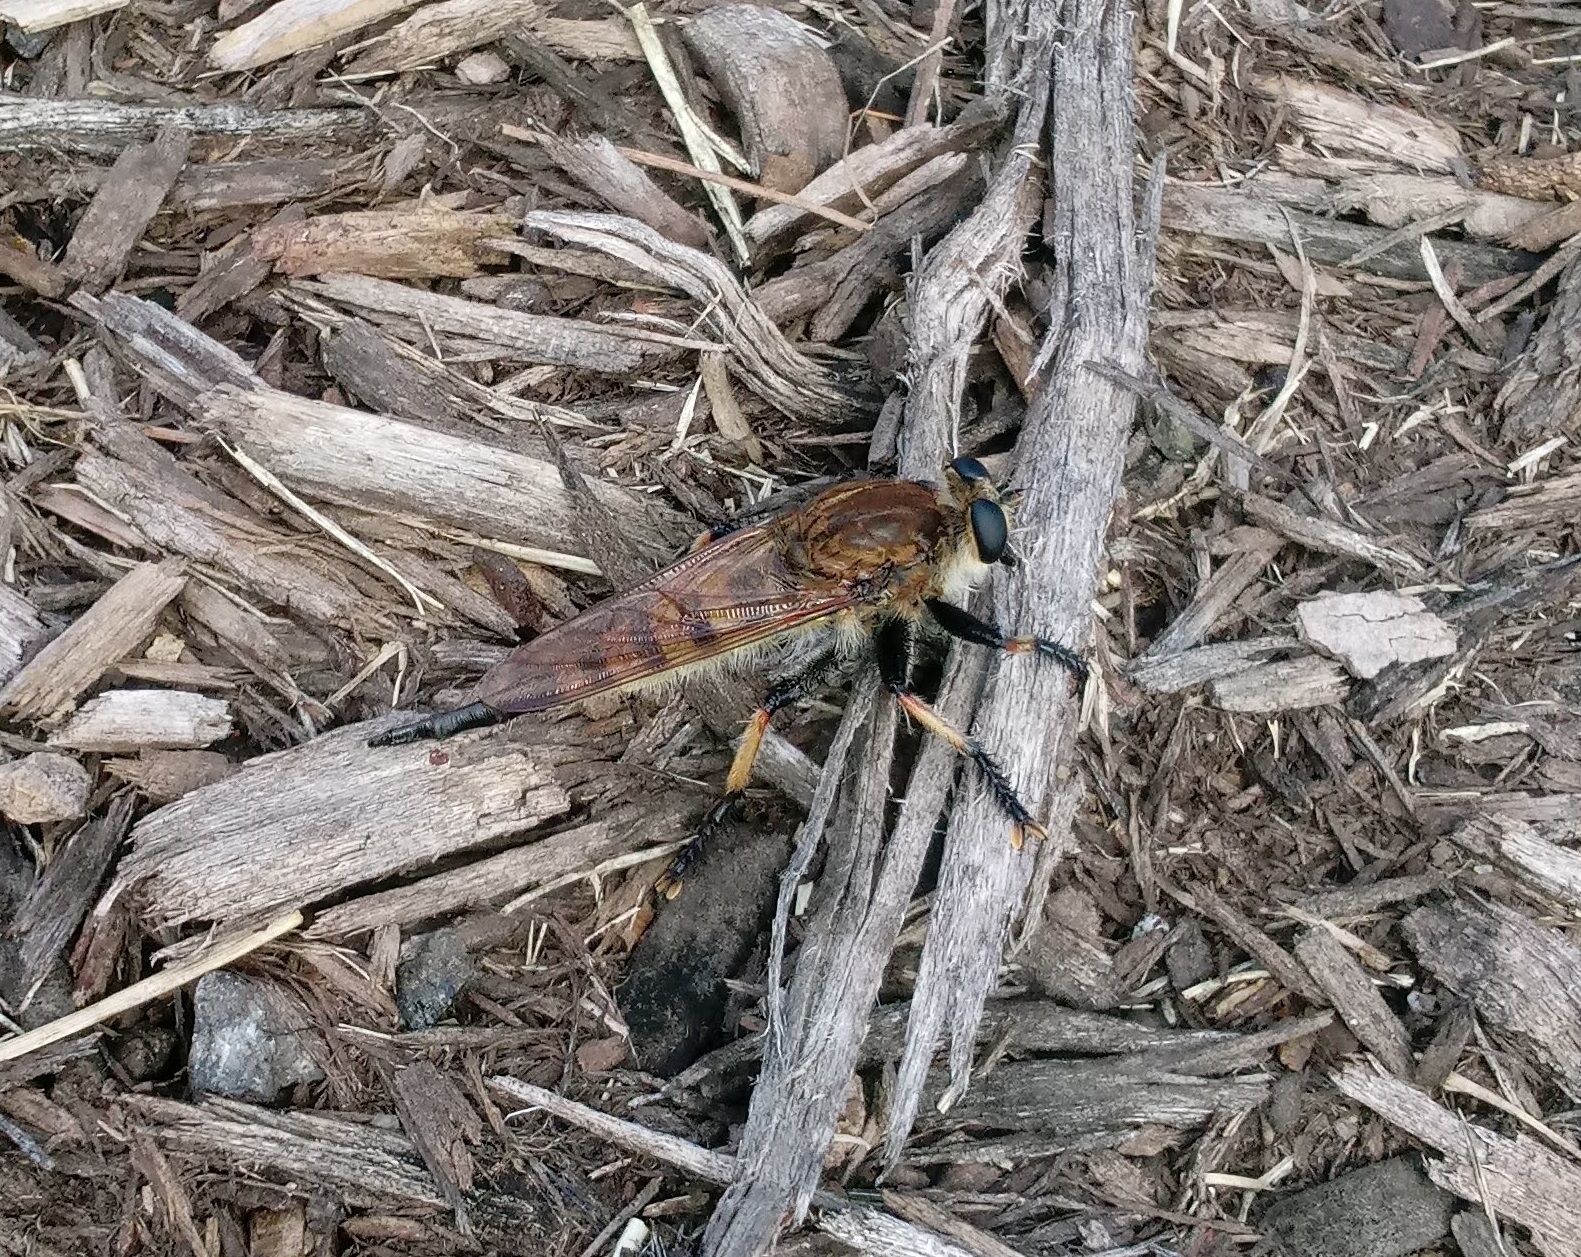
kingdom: Animalia
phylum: Arthropoda
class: Insecta
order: Diptera
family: Asilidae
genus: Promachus
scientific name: Promachus rufipes
